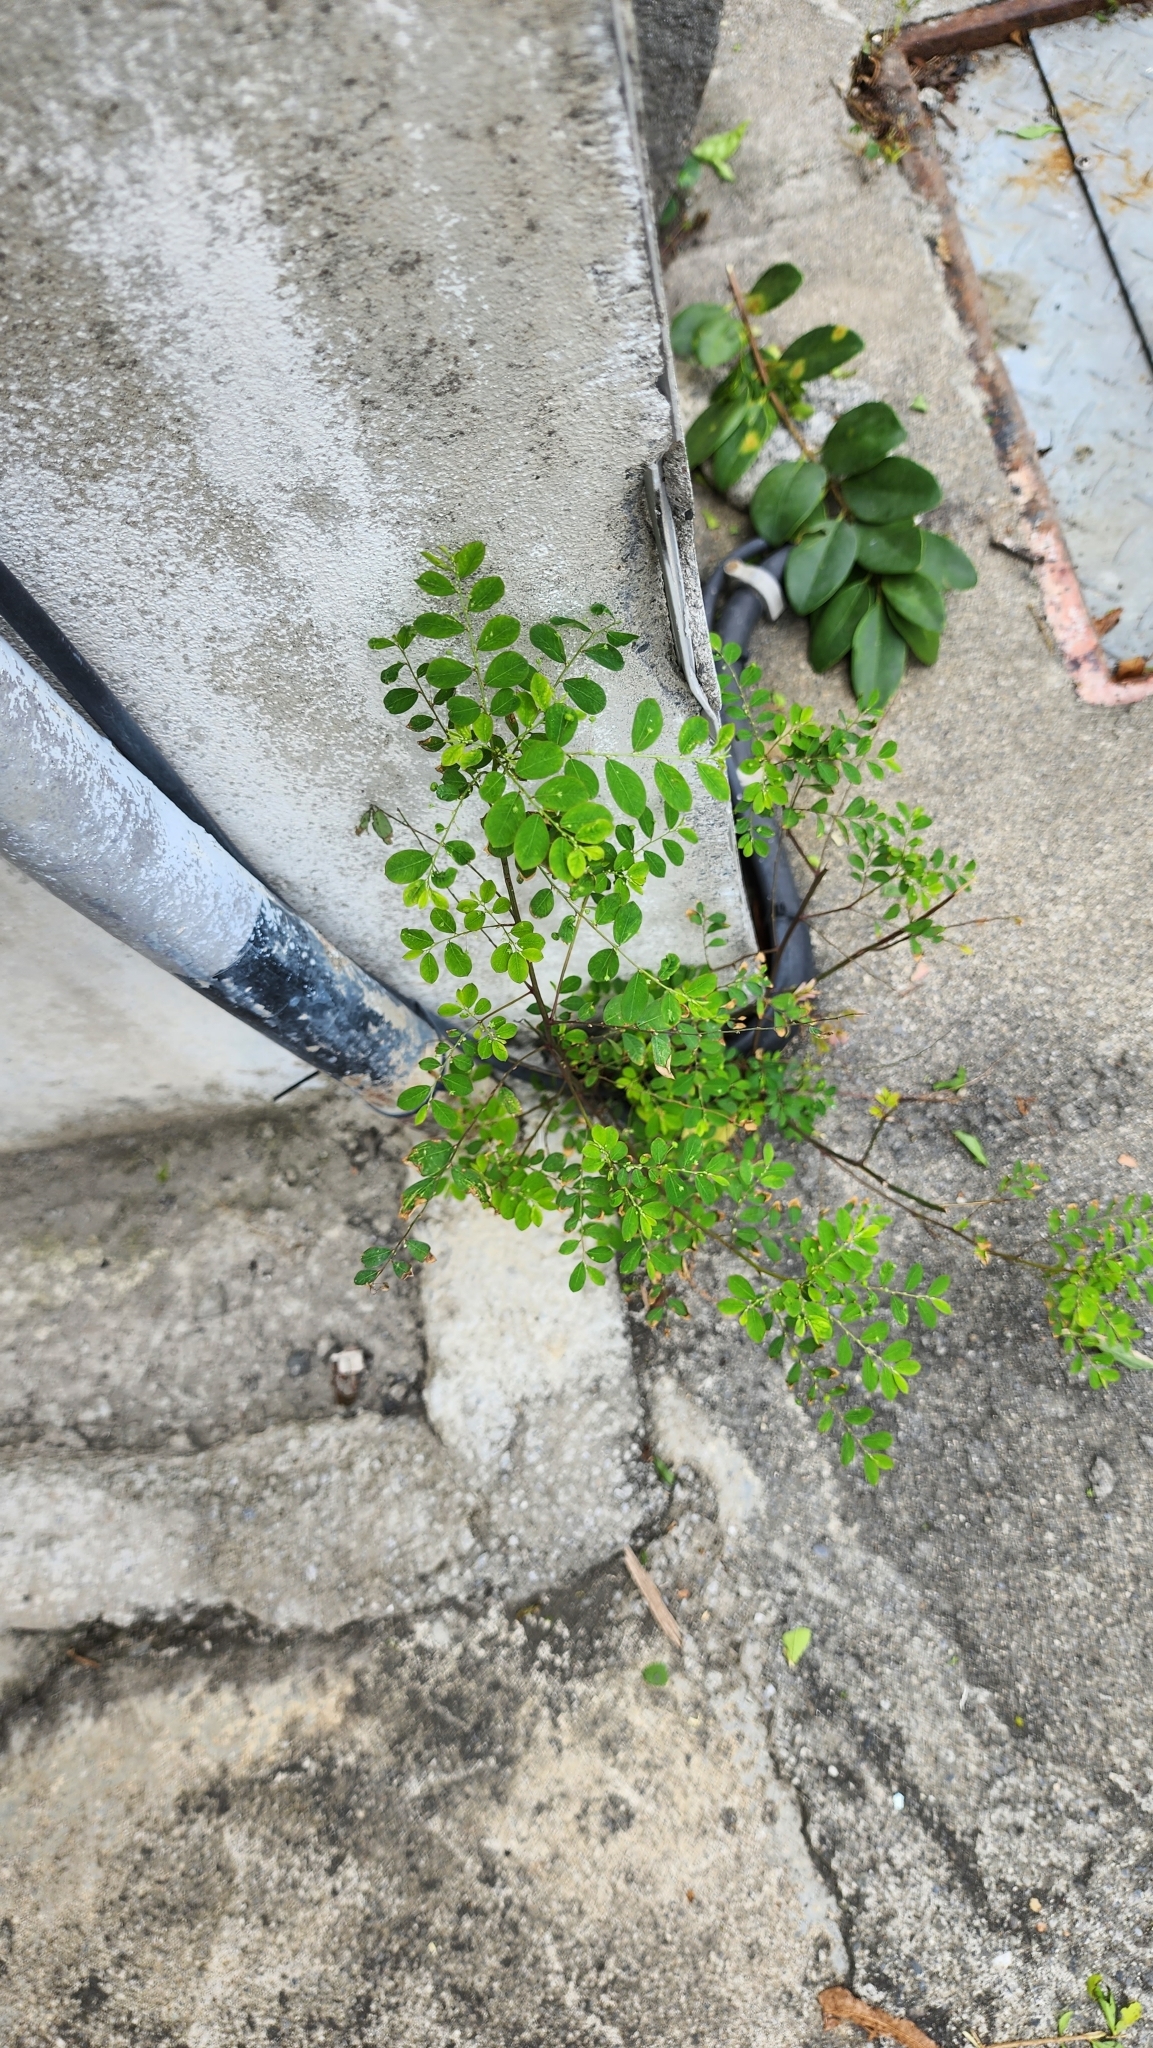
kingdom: Plantae
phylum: Tracheophyta
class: Magnoliopsida
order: Malpighiales
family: Phyllanthaceae
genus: Phyllanthus
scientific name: Phyllanthus tenellus
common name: Mascarene island leaf-flower
